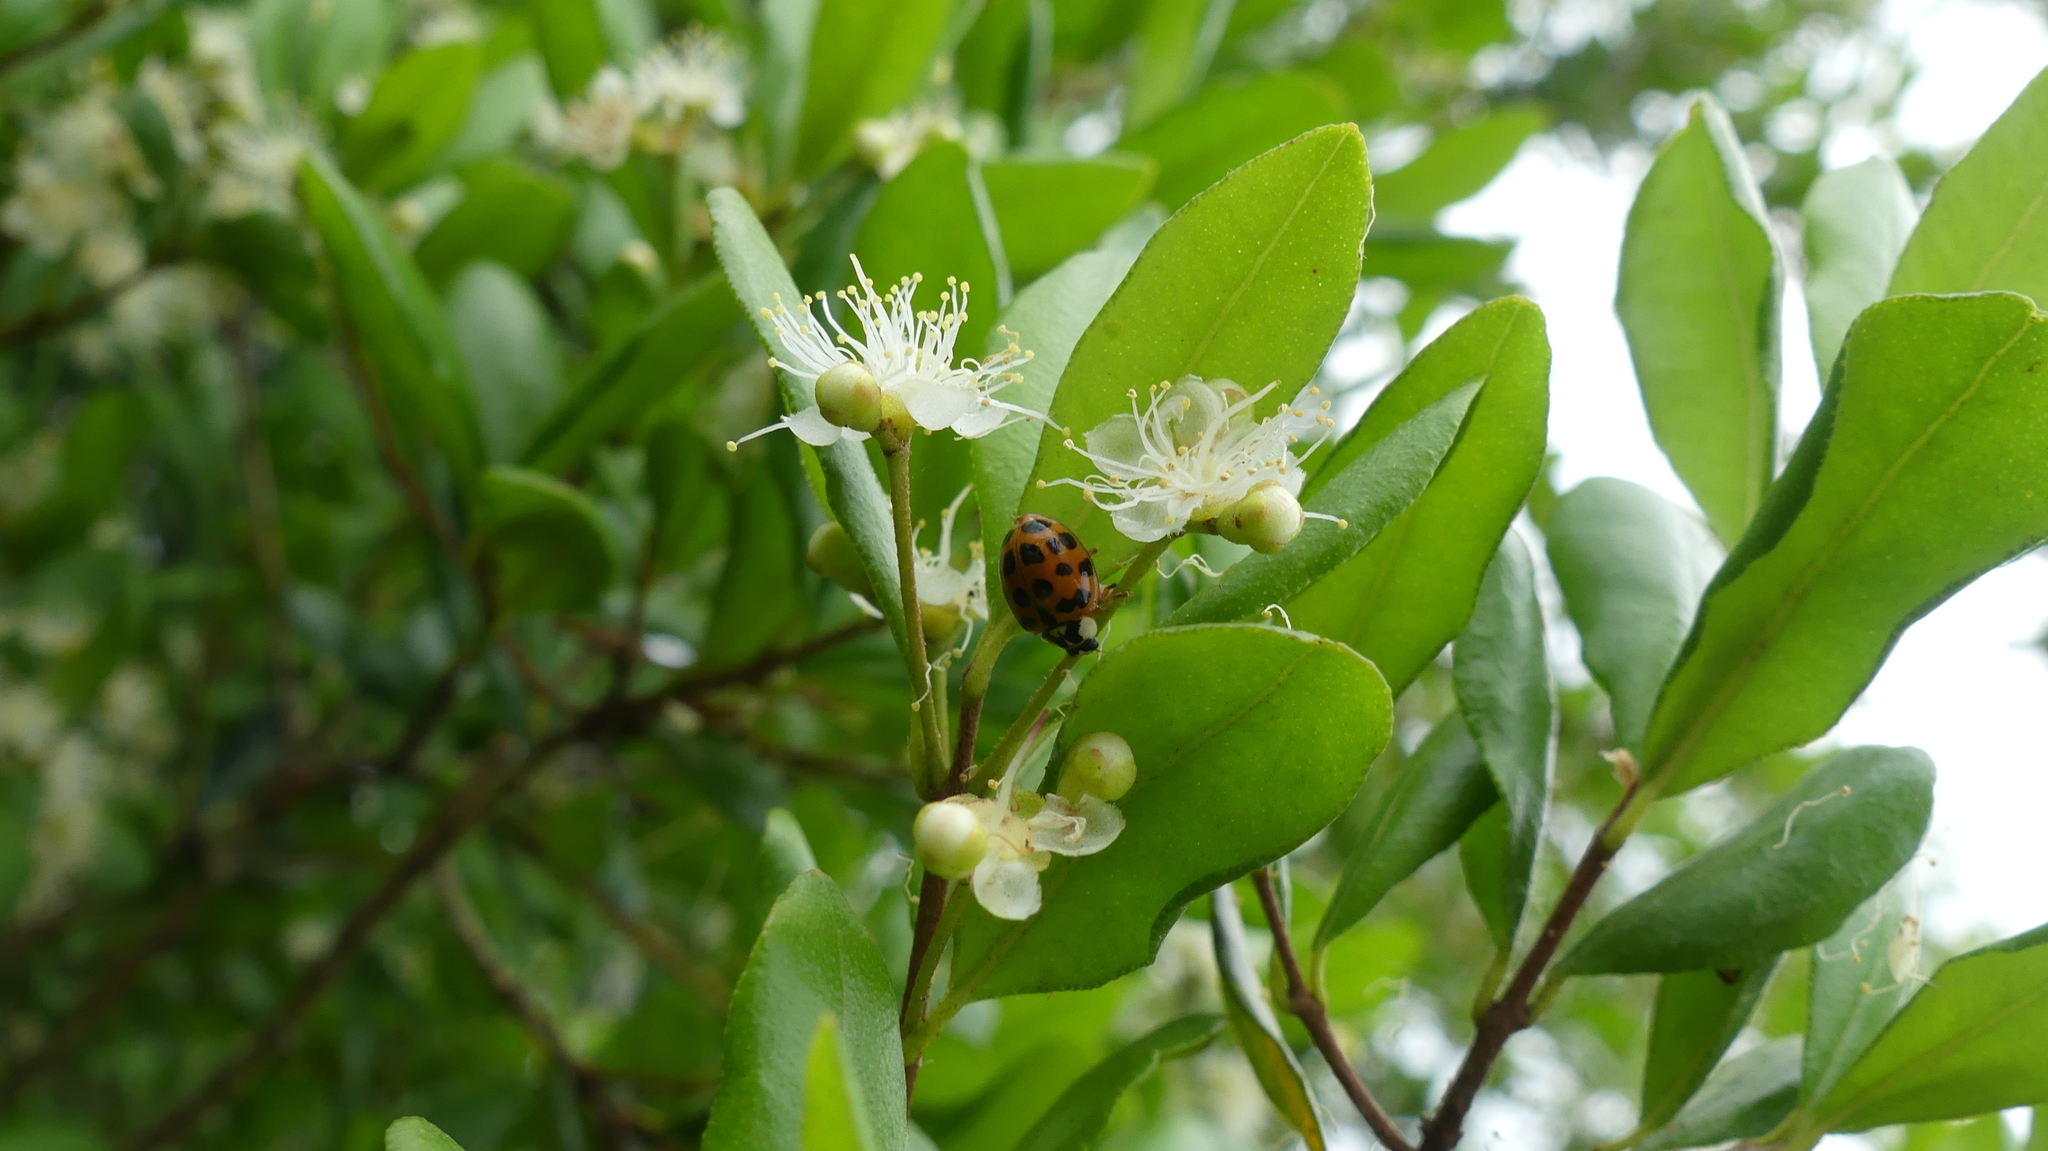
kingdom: Animalia
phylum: Arthropoda
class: Insecta
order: Coleoptera
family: Coccinellidae
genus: Harmonia
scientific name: Harmonia axyridis
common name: Harlequin ladybird
